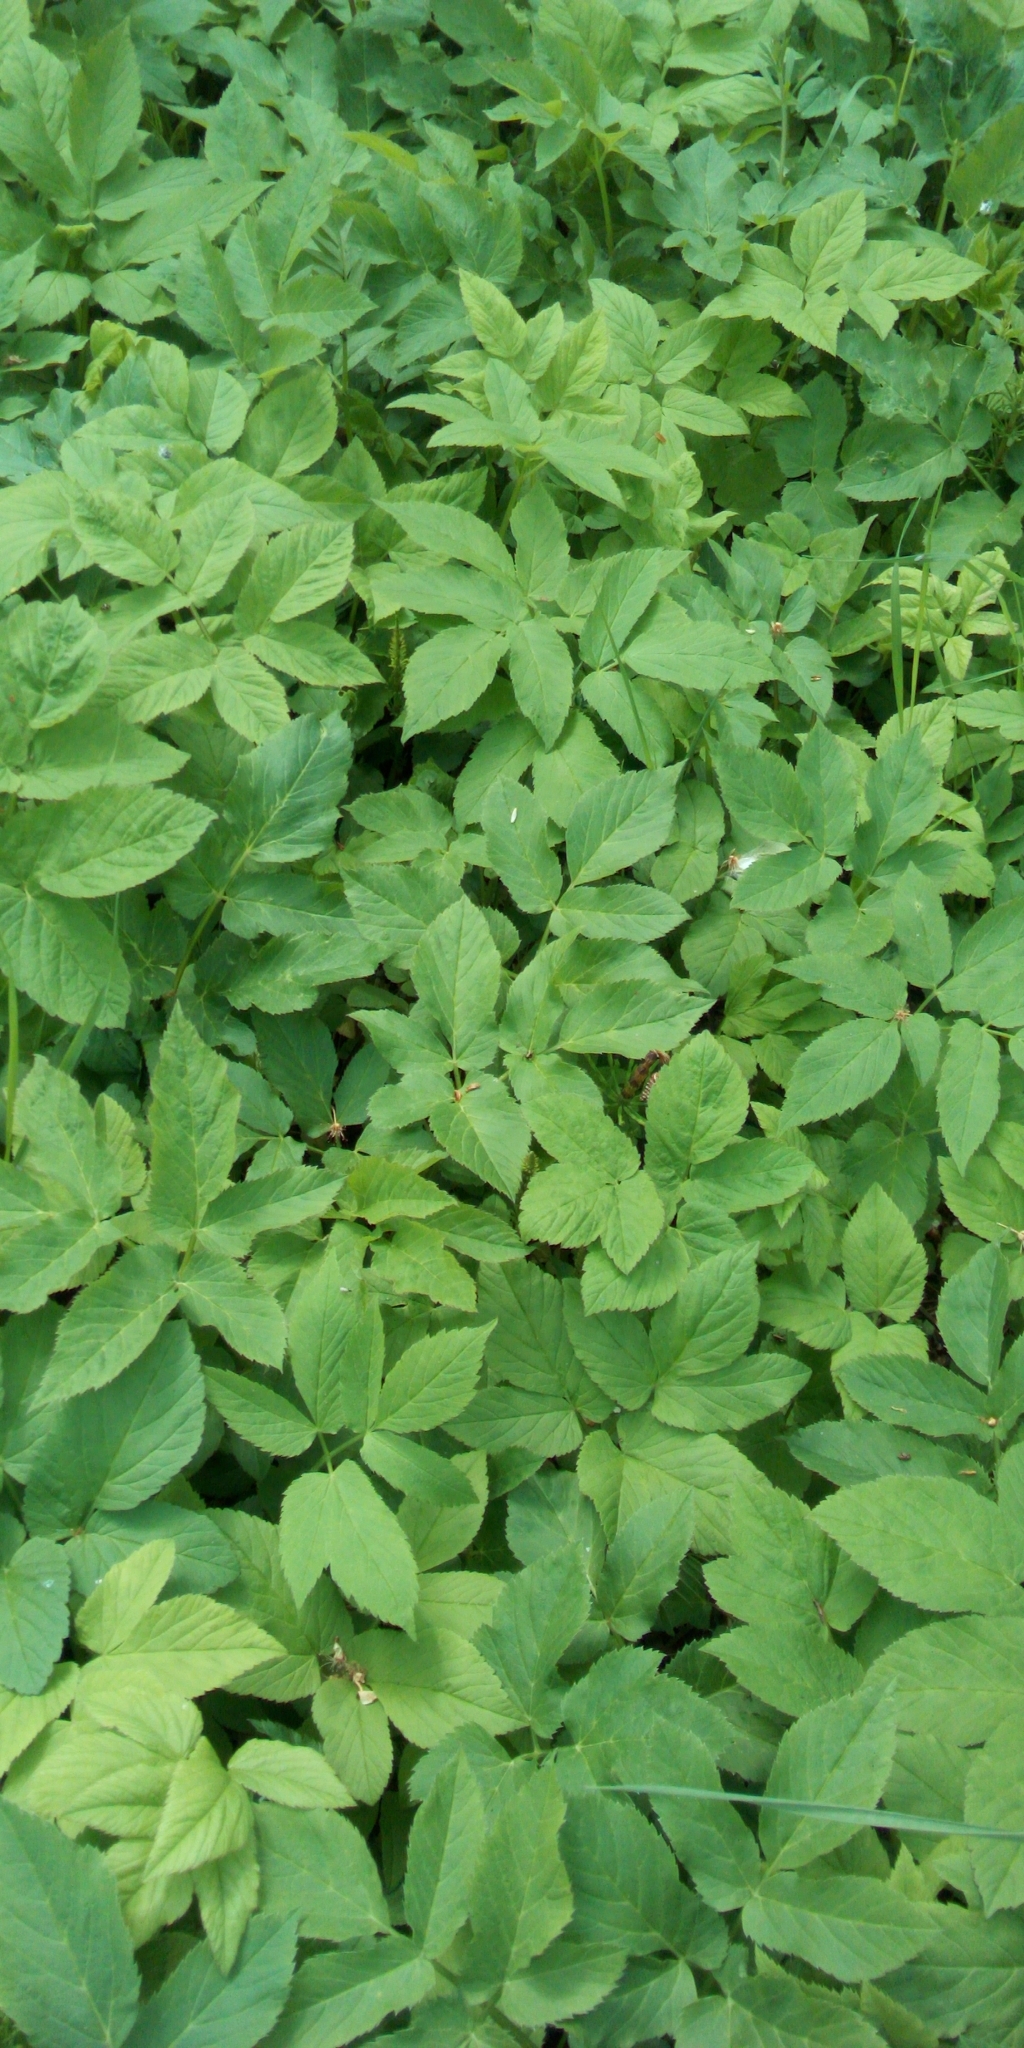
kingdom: Plantae
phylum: Tracheophyta
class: Magnoliopsida
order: Apiales
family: Apiaceae
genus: Aegopodium
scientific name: Aegopodium podagraria
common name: Ground-elder
